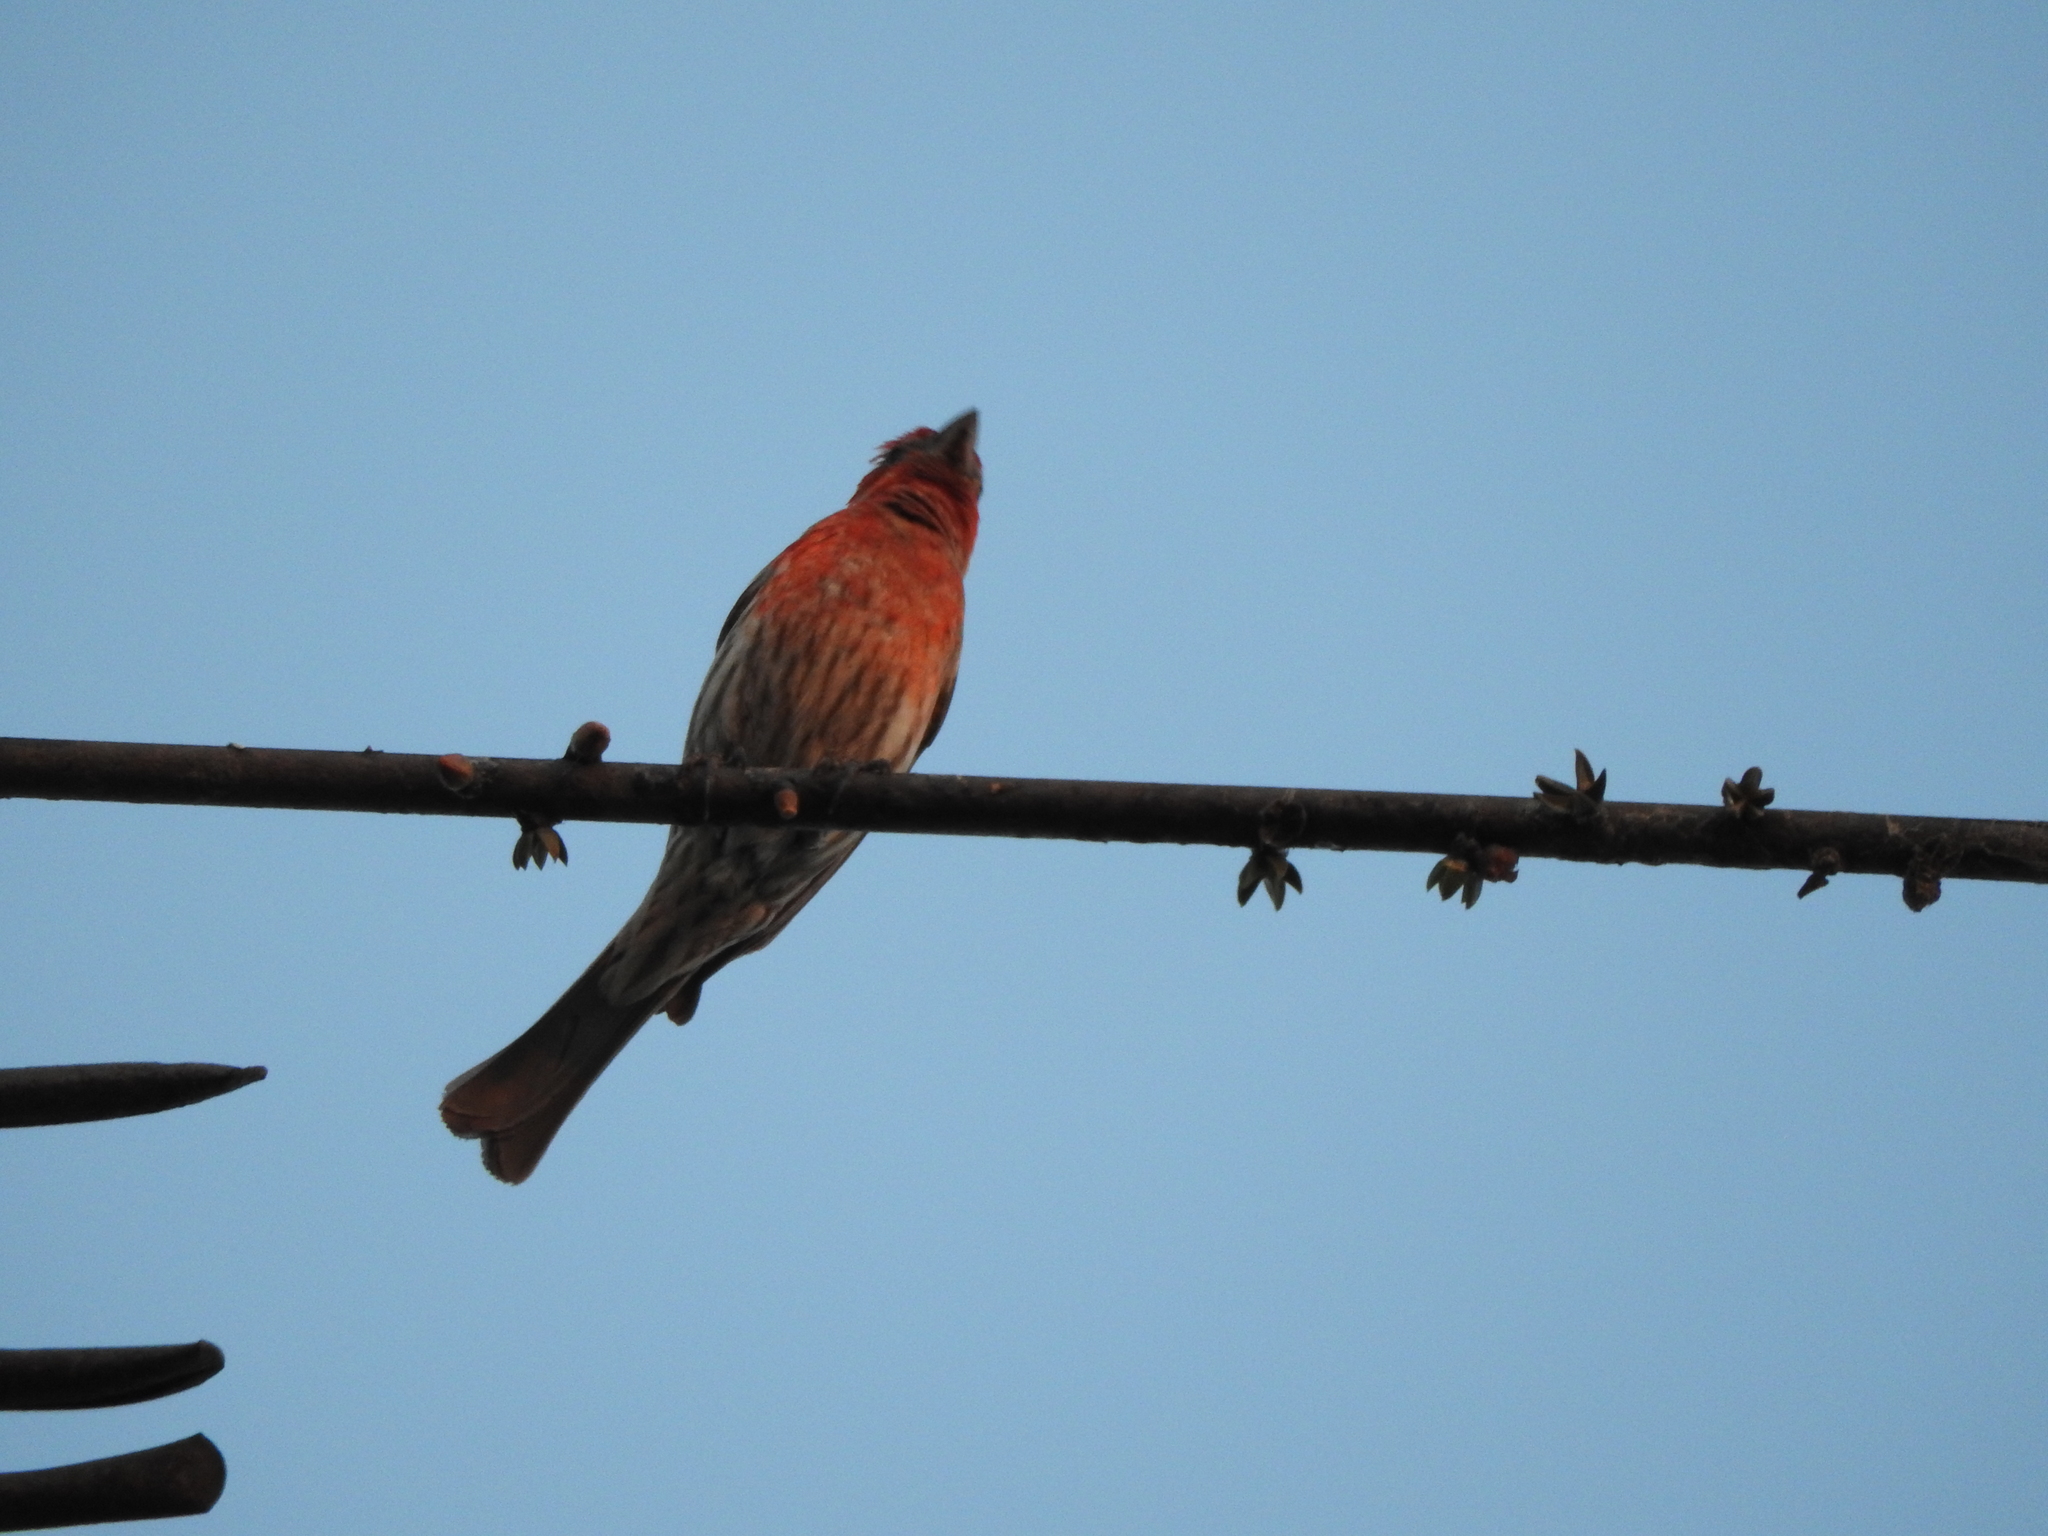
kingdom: Animalia
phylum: Chordata
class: Aves
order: Passeriformes
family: Fringillidae
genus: Haemorhous
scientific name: Haemorhous mexicanus
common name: House finch
